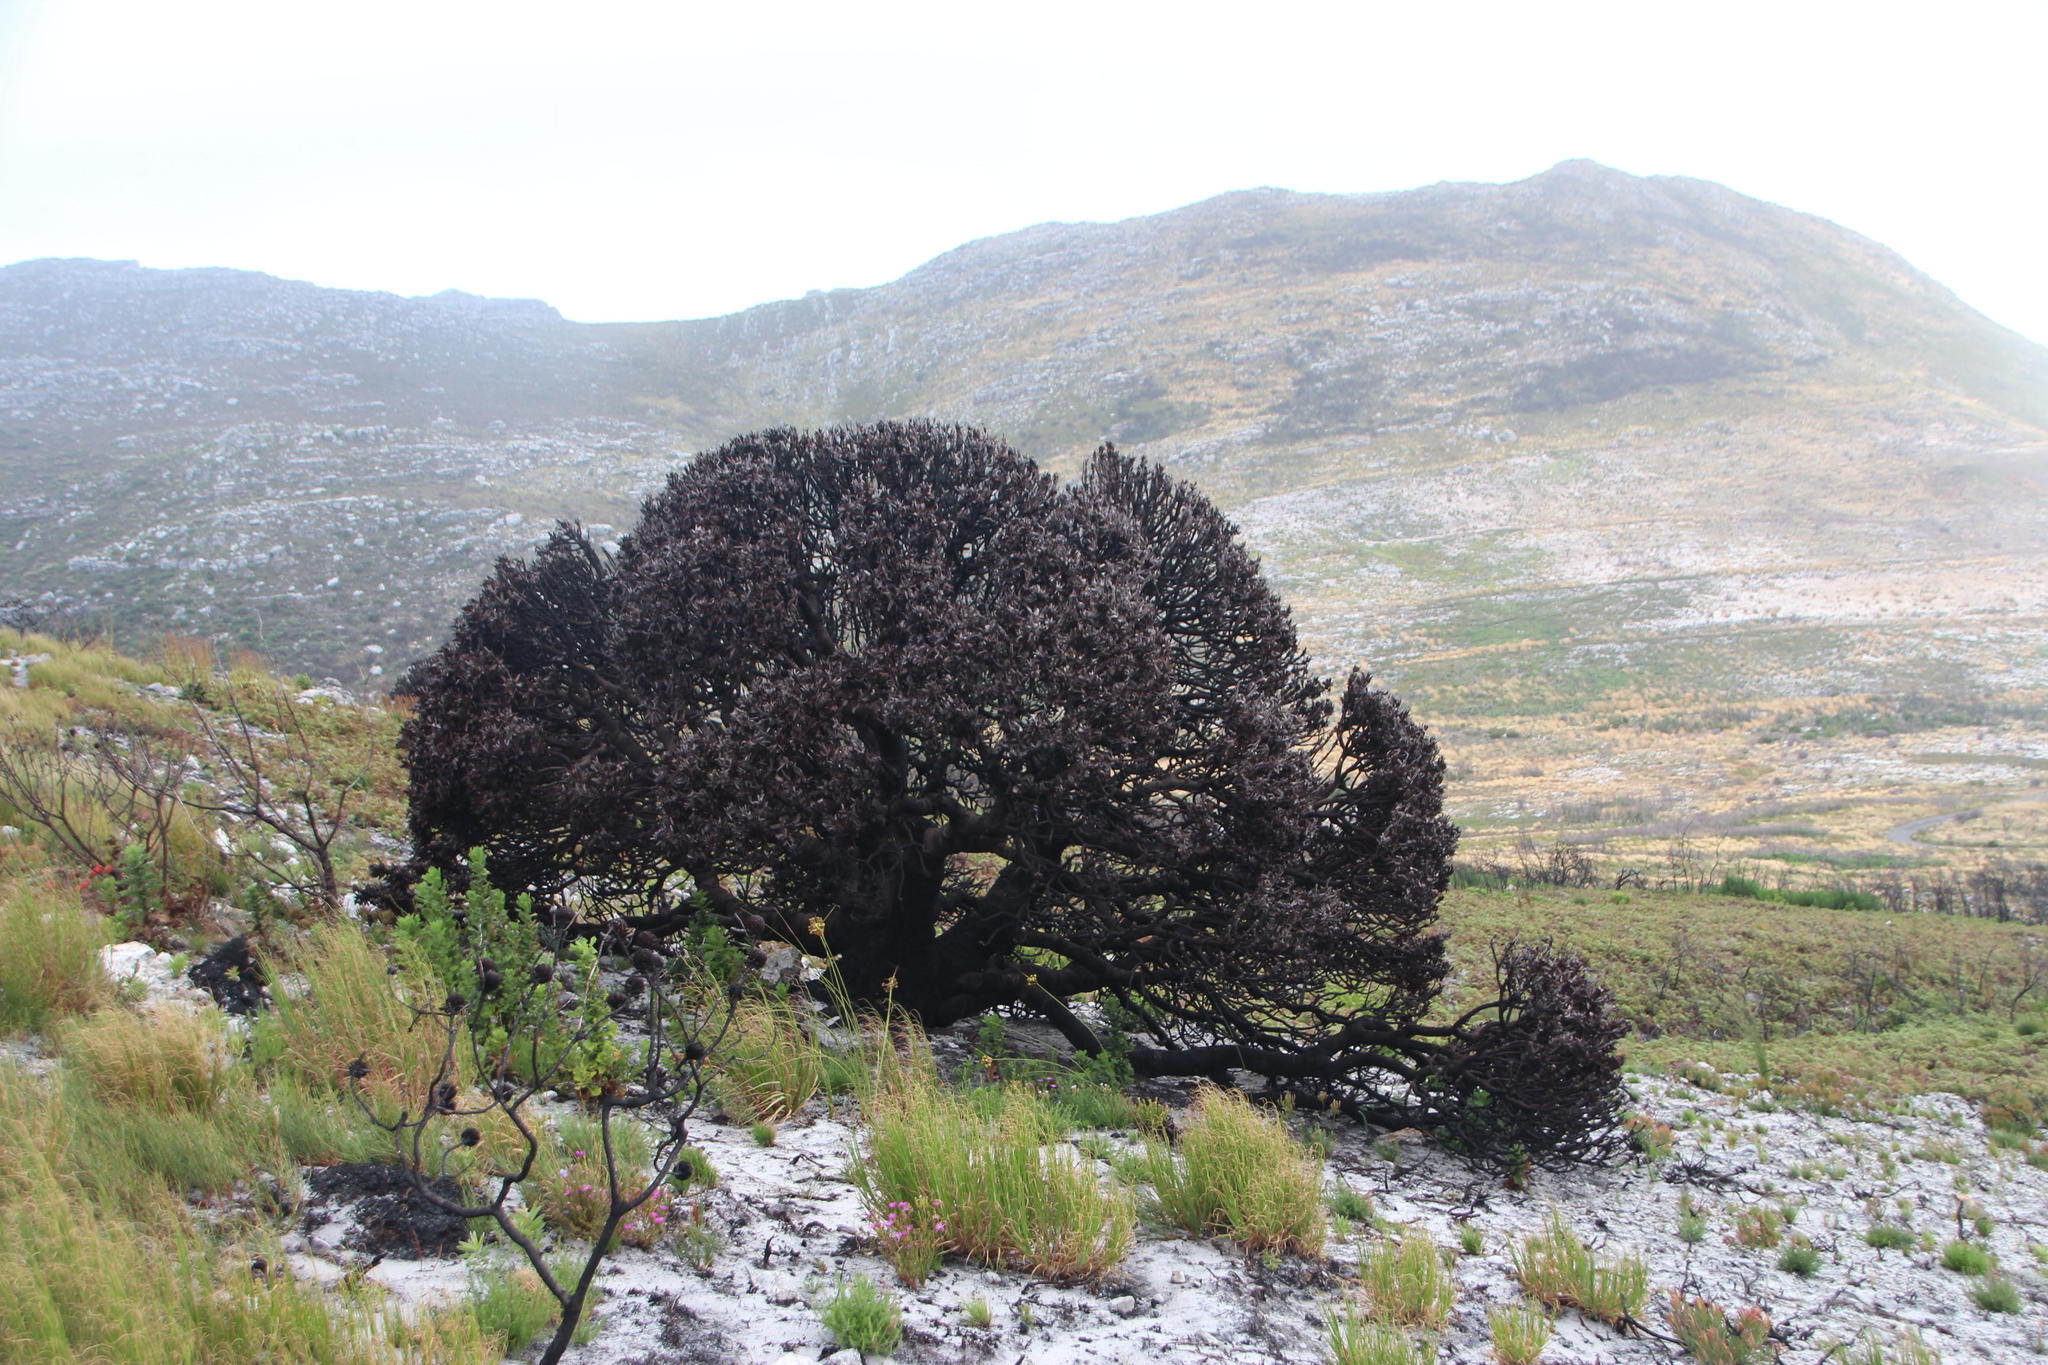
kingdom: Plantae
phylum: Tracheophyta
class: Magnoliopsida
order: Proteales
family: Proteaceae
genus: Mimetes
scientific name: Mimetes fimbriifolius
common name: Fringed bottlebrush
